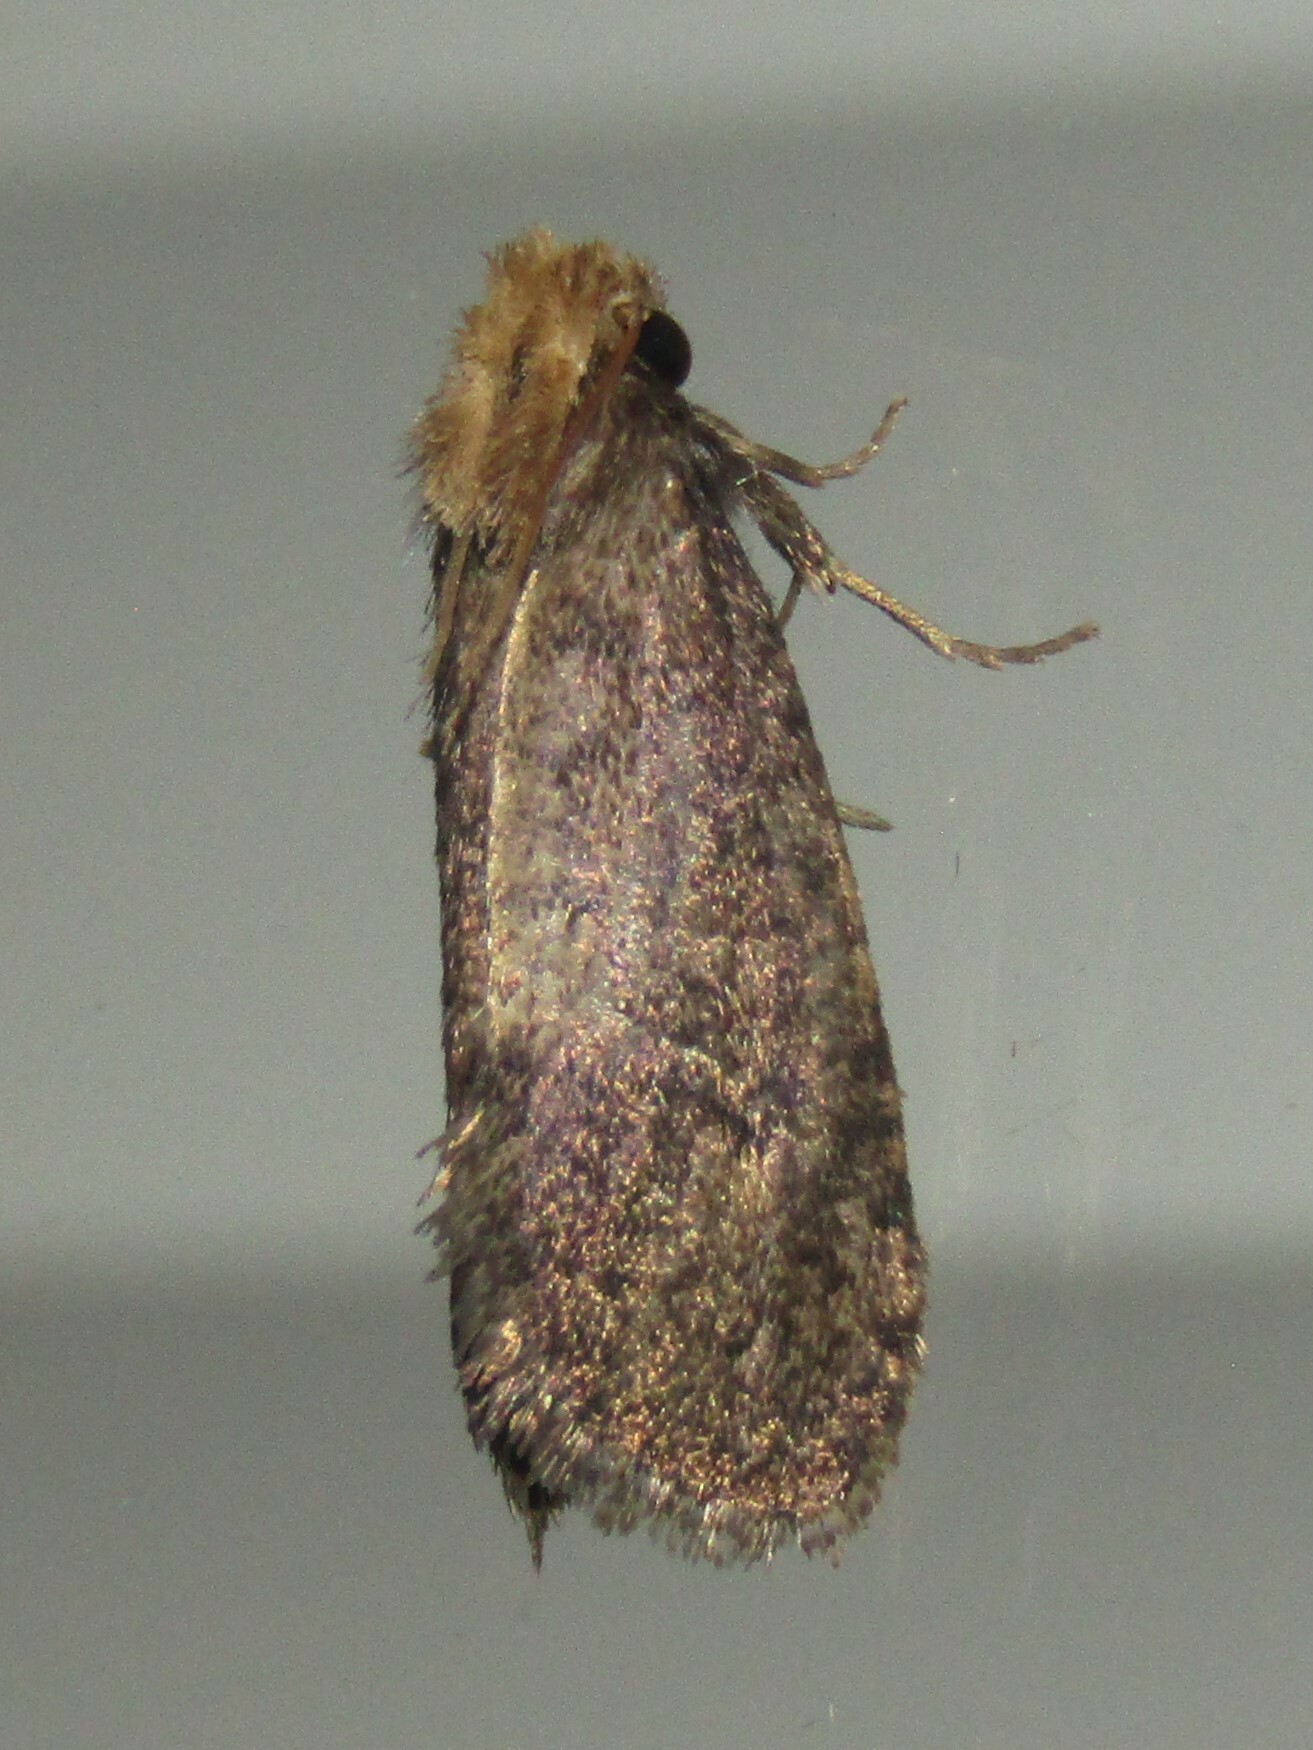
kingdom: Animalia
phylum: Arthropoda
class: Insecta
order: Lepidoptera
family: Tineidae
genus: Acrolophus
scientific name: Acrolophus propinqua
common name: Walsingham's grass tubeworm moth
